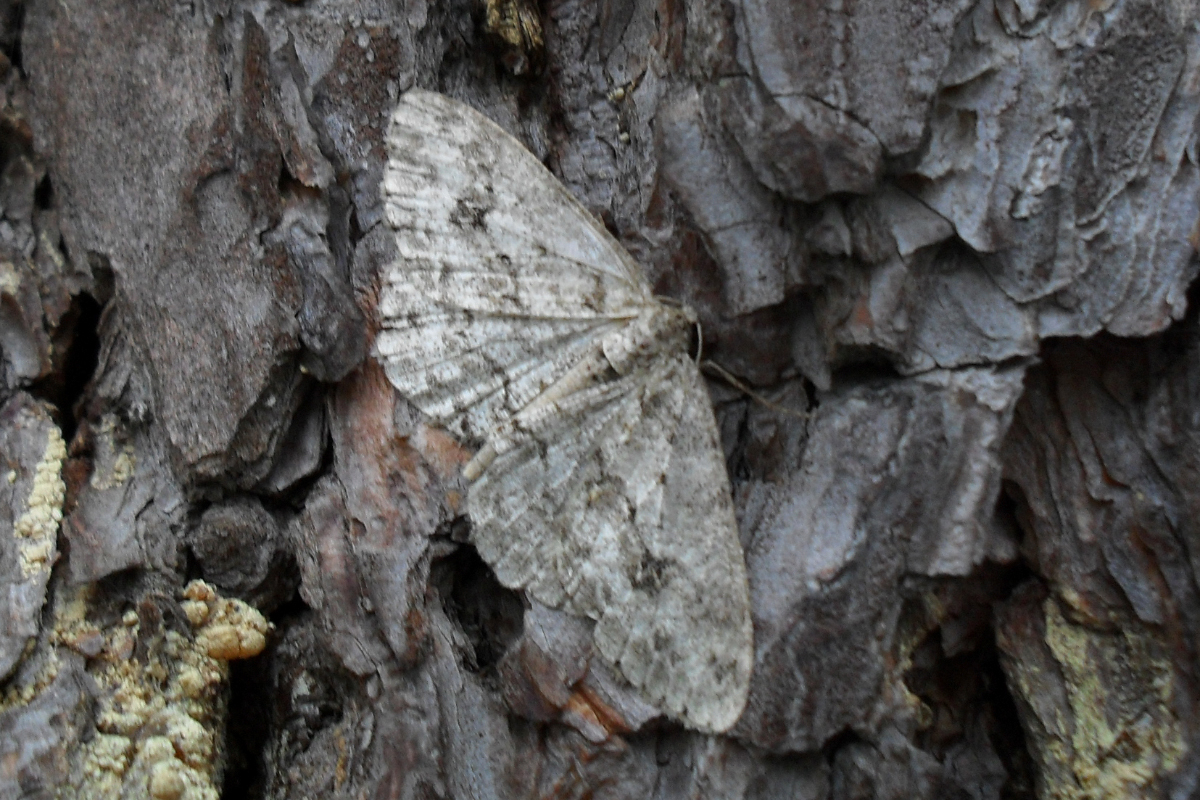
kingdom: Animalia
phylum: Arthropoda
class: Insecta
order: Lepidoptera
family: Geometridae
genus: Ectropis
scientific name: Ectropis crepuscularia
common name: Engrailed
